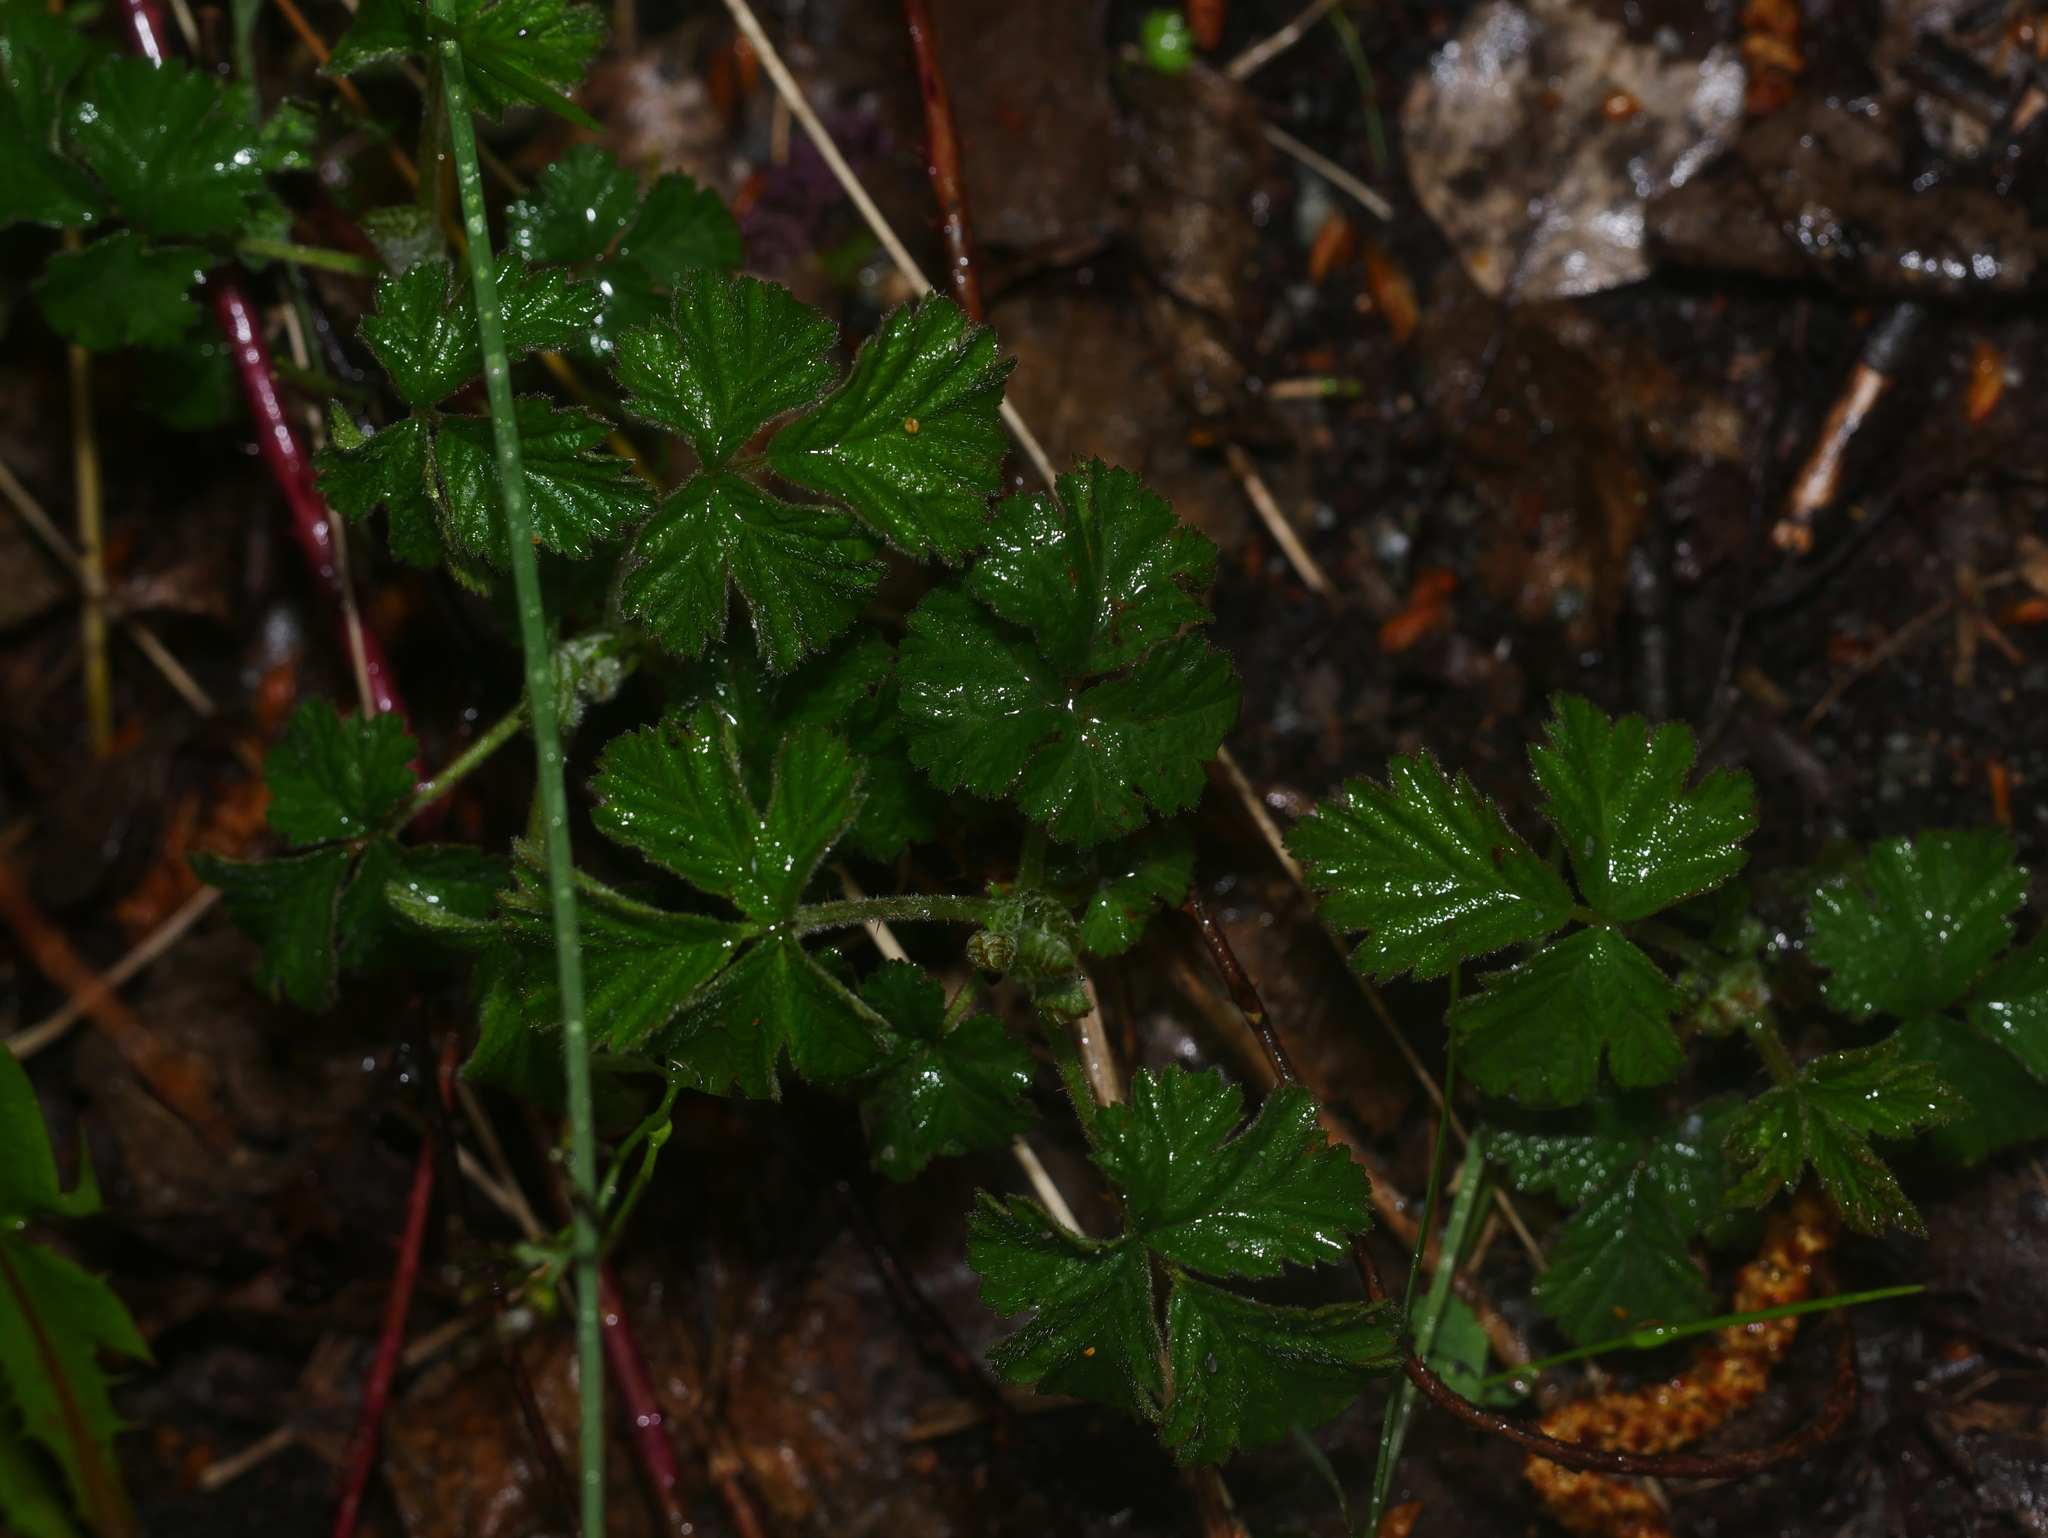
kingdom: Plantae
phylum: Tracheophyta
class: Magnoliopsida
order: Rosales
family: Rosaceae
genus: Geum
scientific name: Geum urbanum
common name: Wood avens
